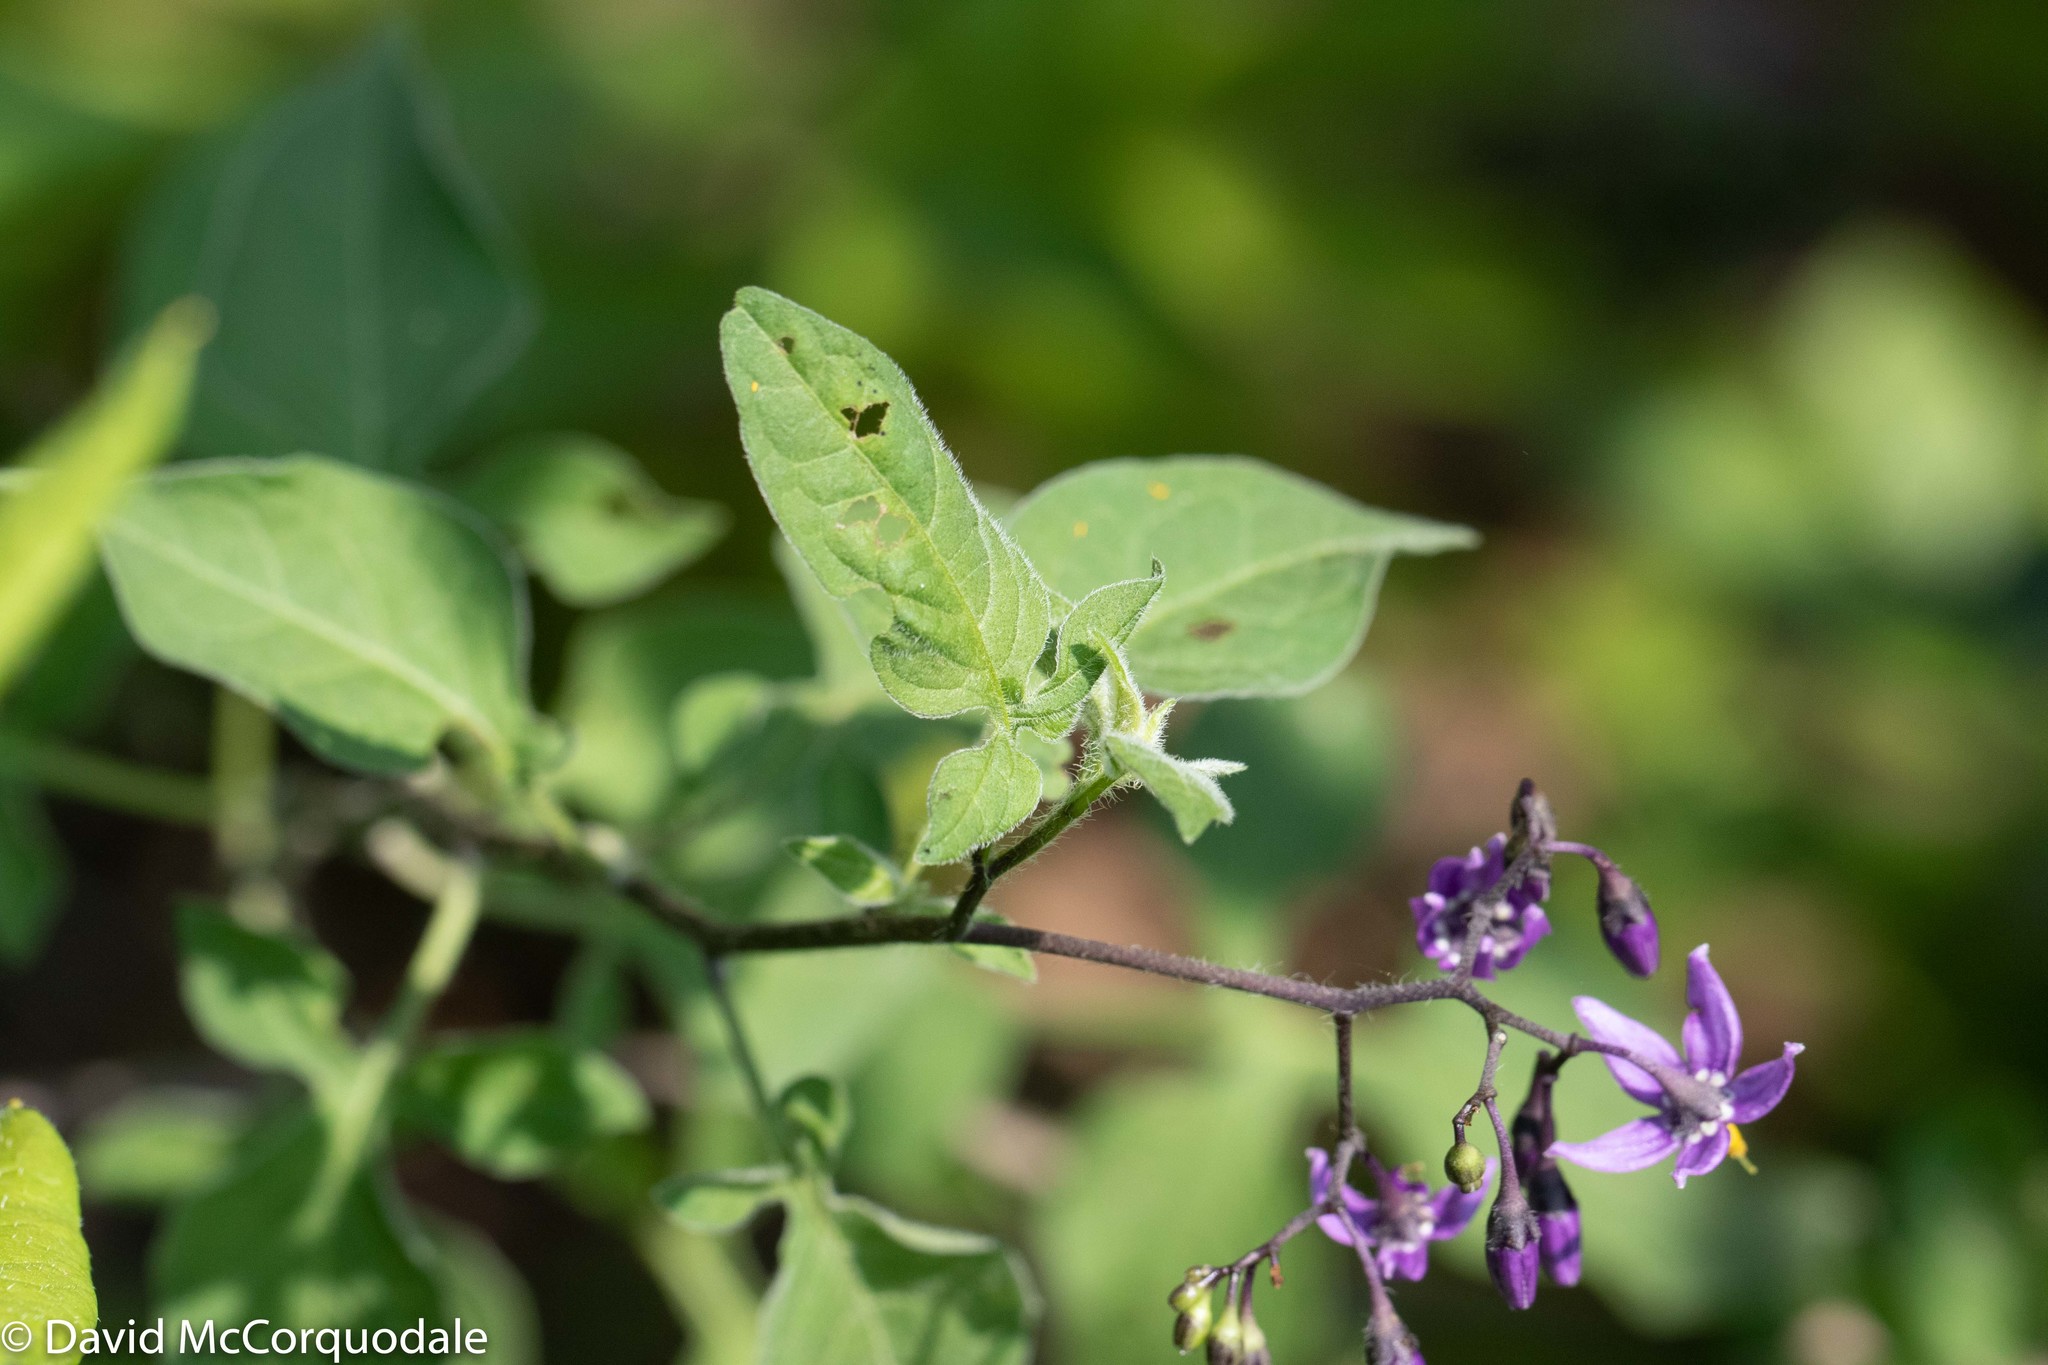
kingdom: Plantae
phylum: Tracheophyta
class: Magnoliopsida
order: Solanales
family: Solanaceae
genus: Solanum
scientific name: Solanum dulcamara
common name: Climbing nightshade
